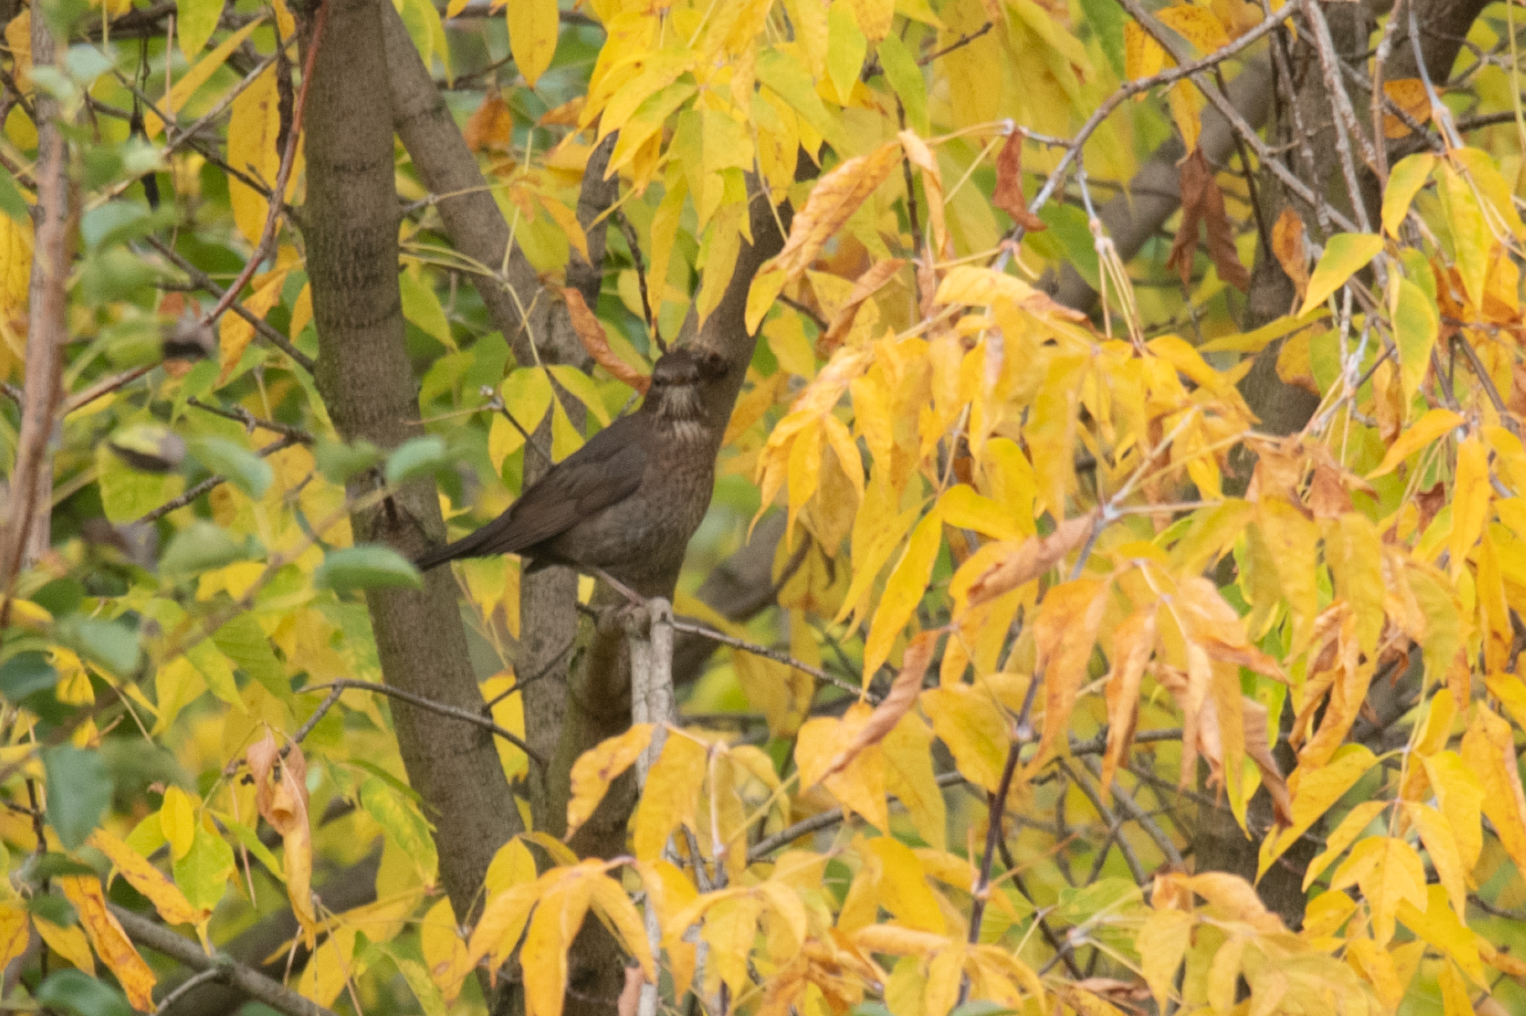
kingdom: Animalia
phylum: Chordata
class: Aves
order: Passeriformes
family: Turdidae
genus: Turdus
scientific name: Turdus merula
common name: Common blackbird
